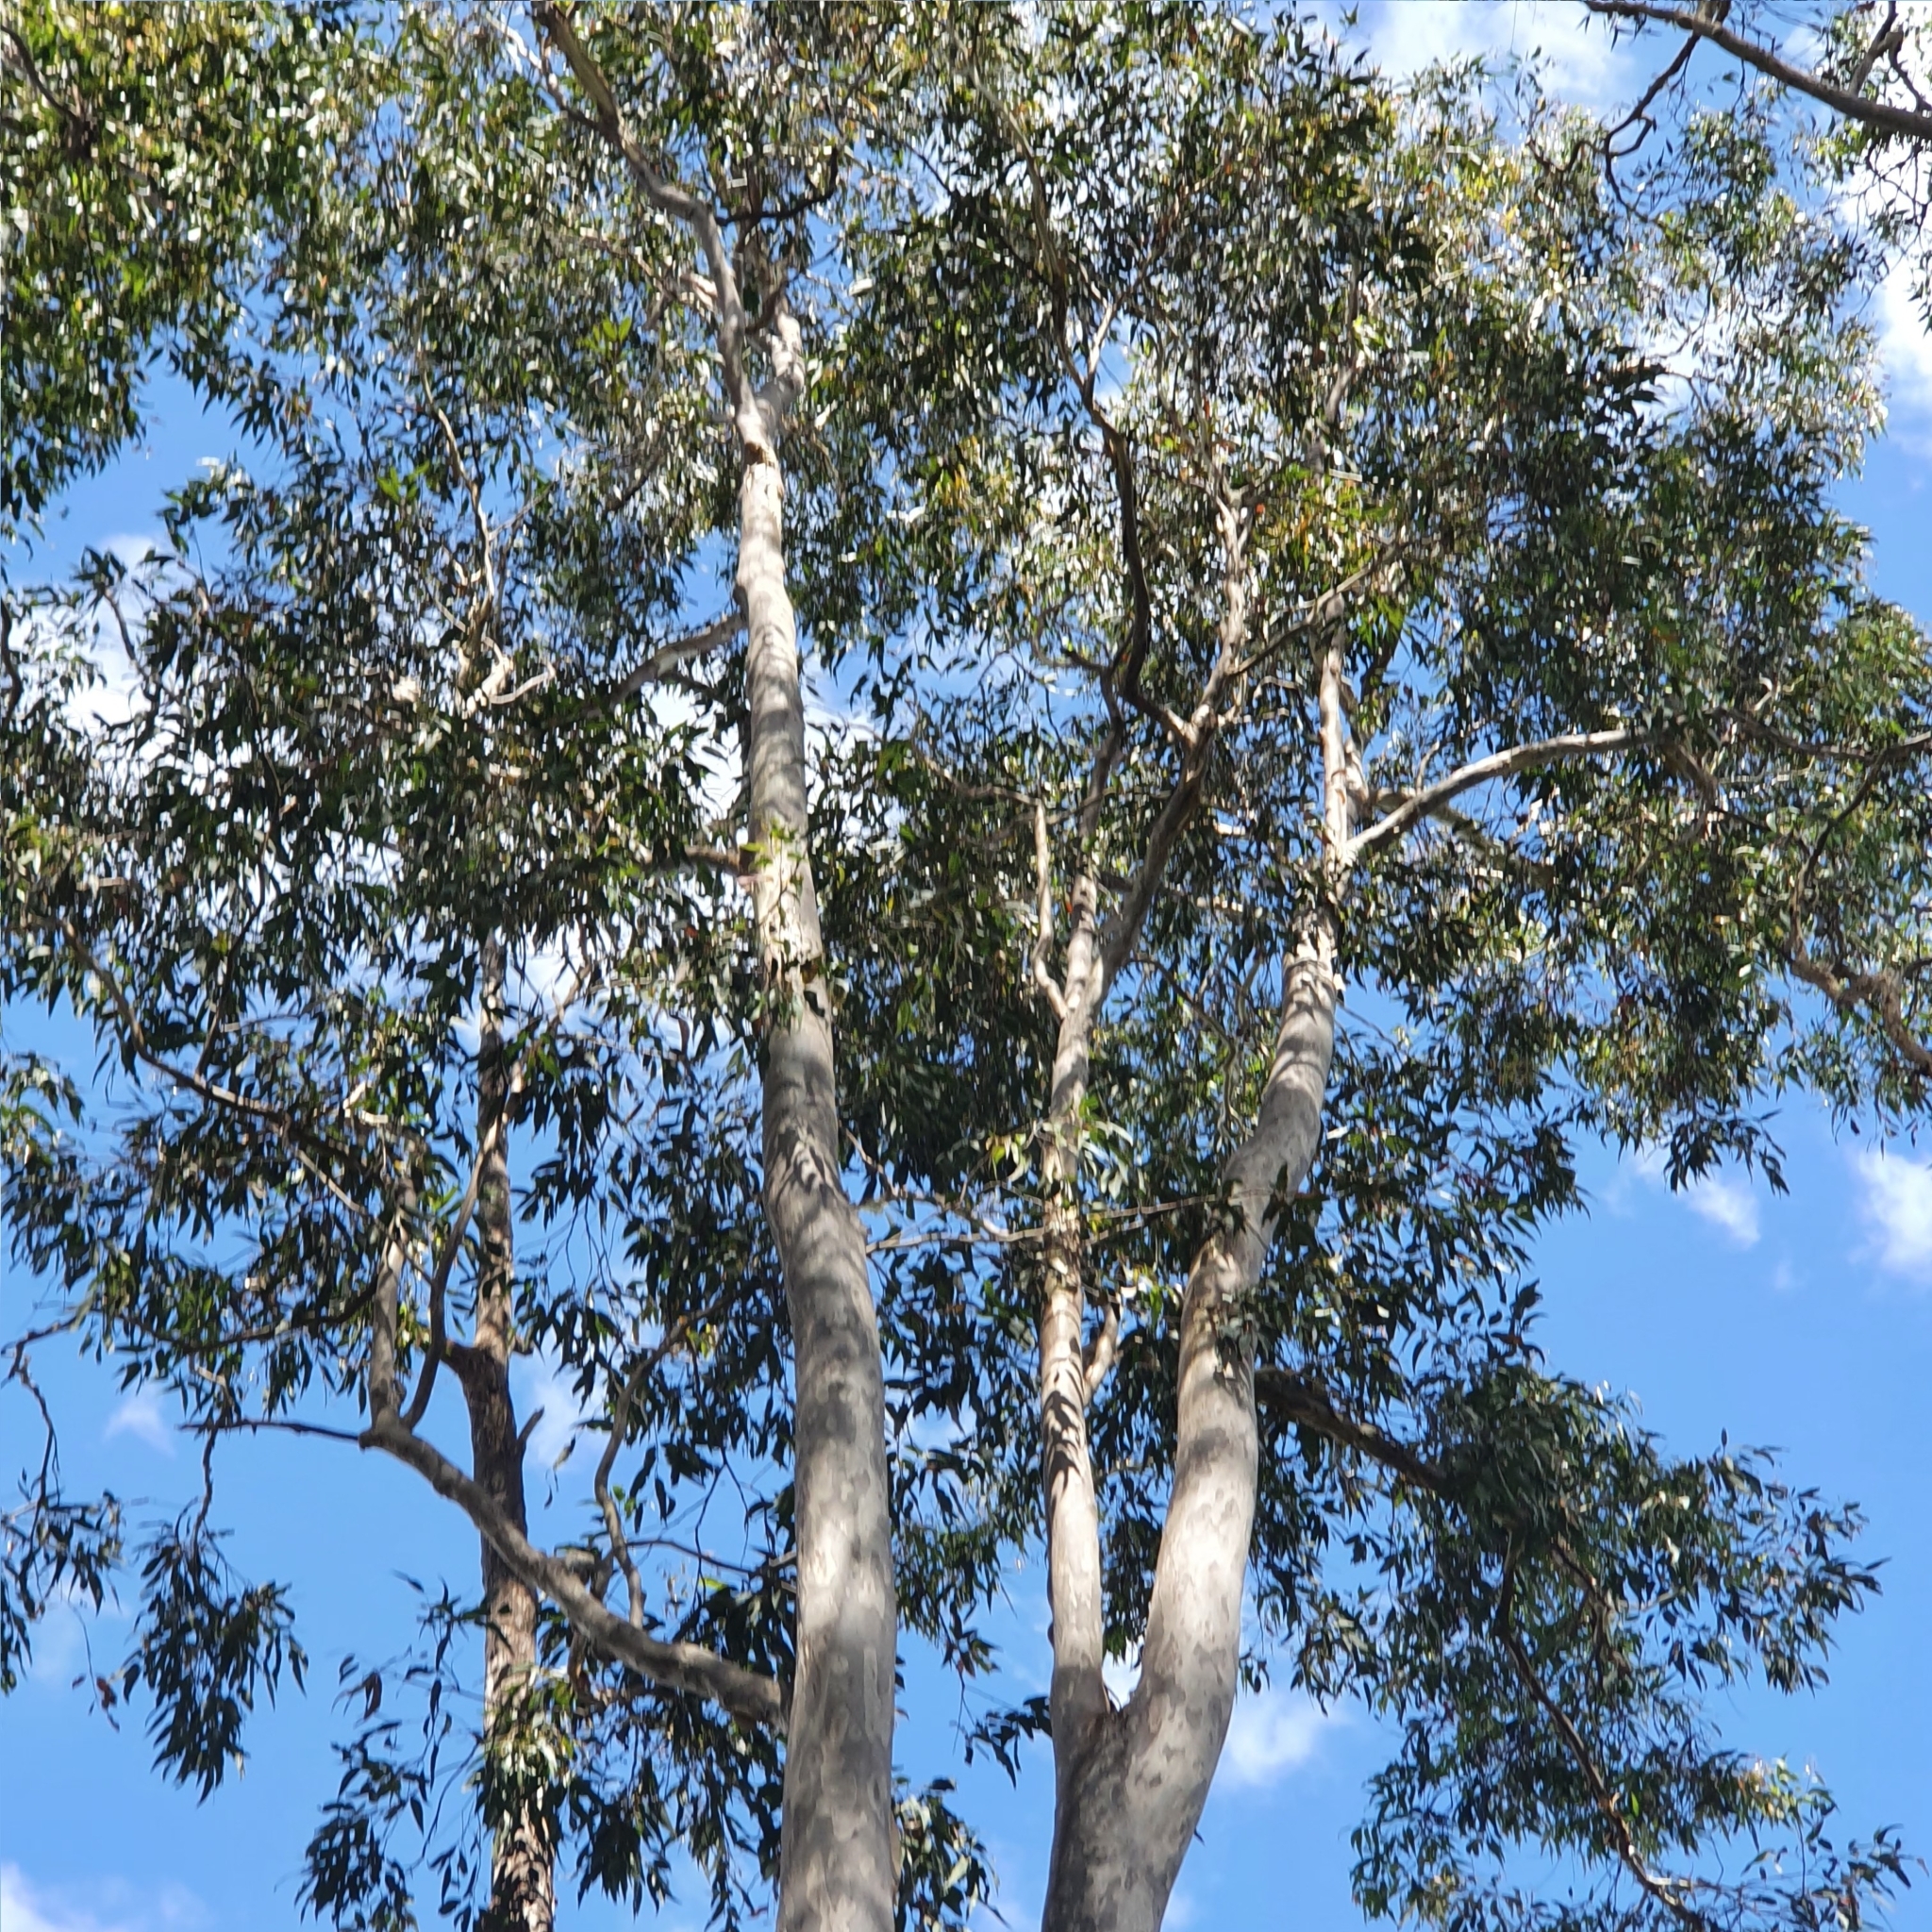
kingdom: Plantae
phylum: Tracheophyta
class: Magnoliopsida
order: Myrtales
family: Myrtaceae
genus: Corymbia
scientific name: Corymbia maculata
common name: Spotted gum
